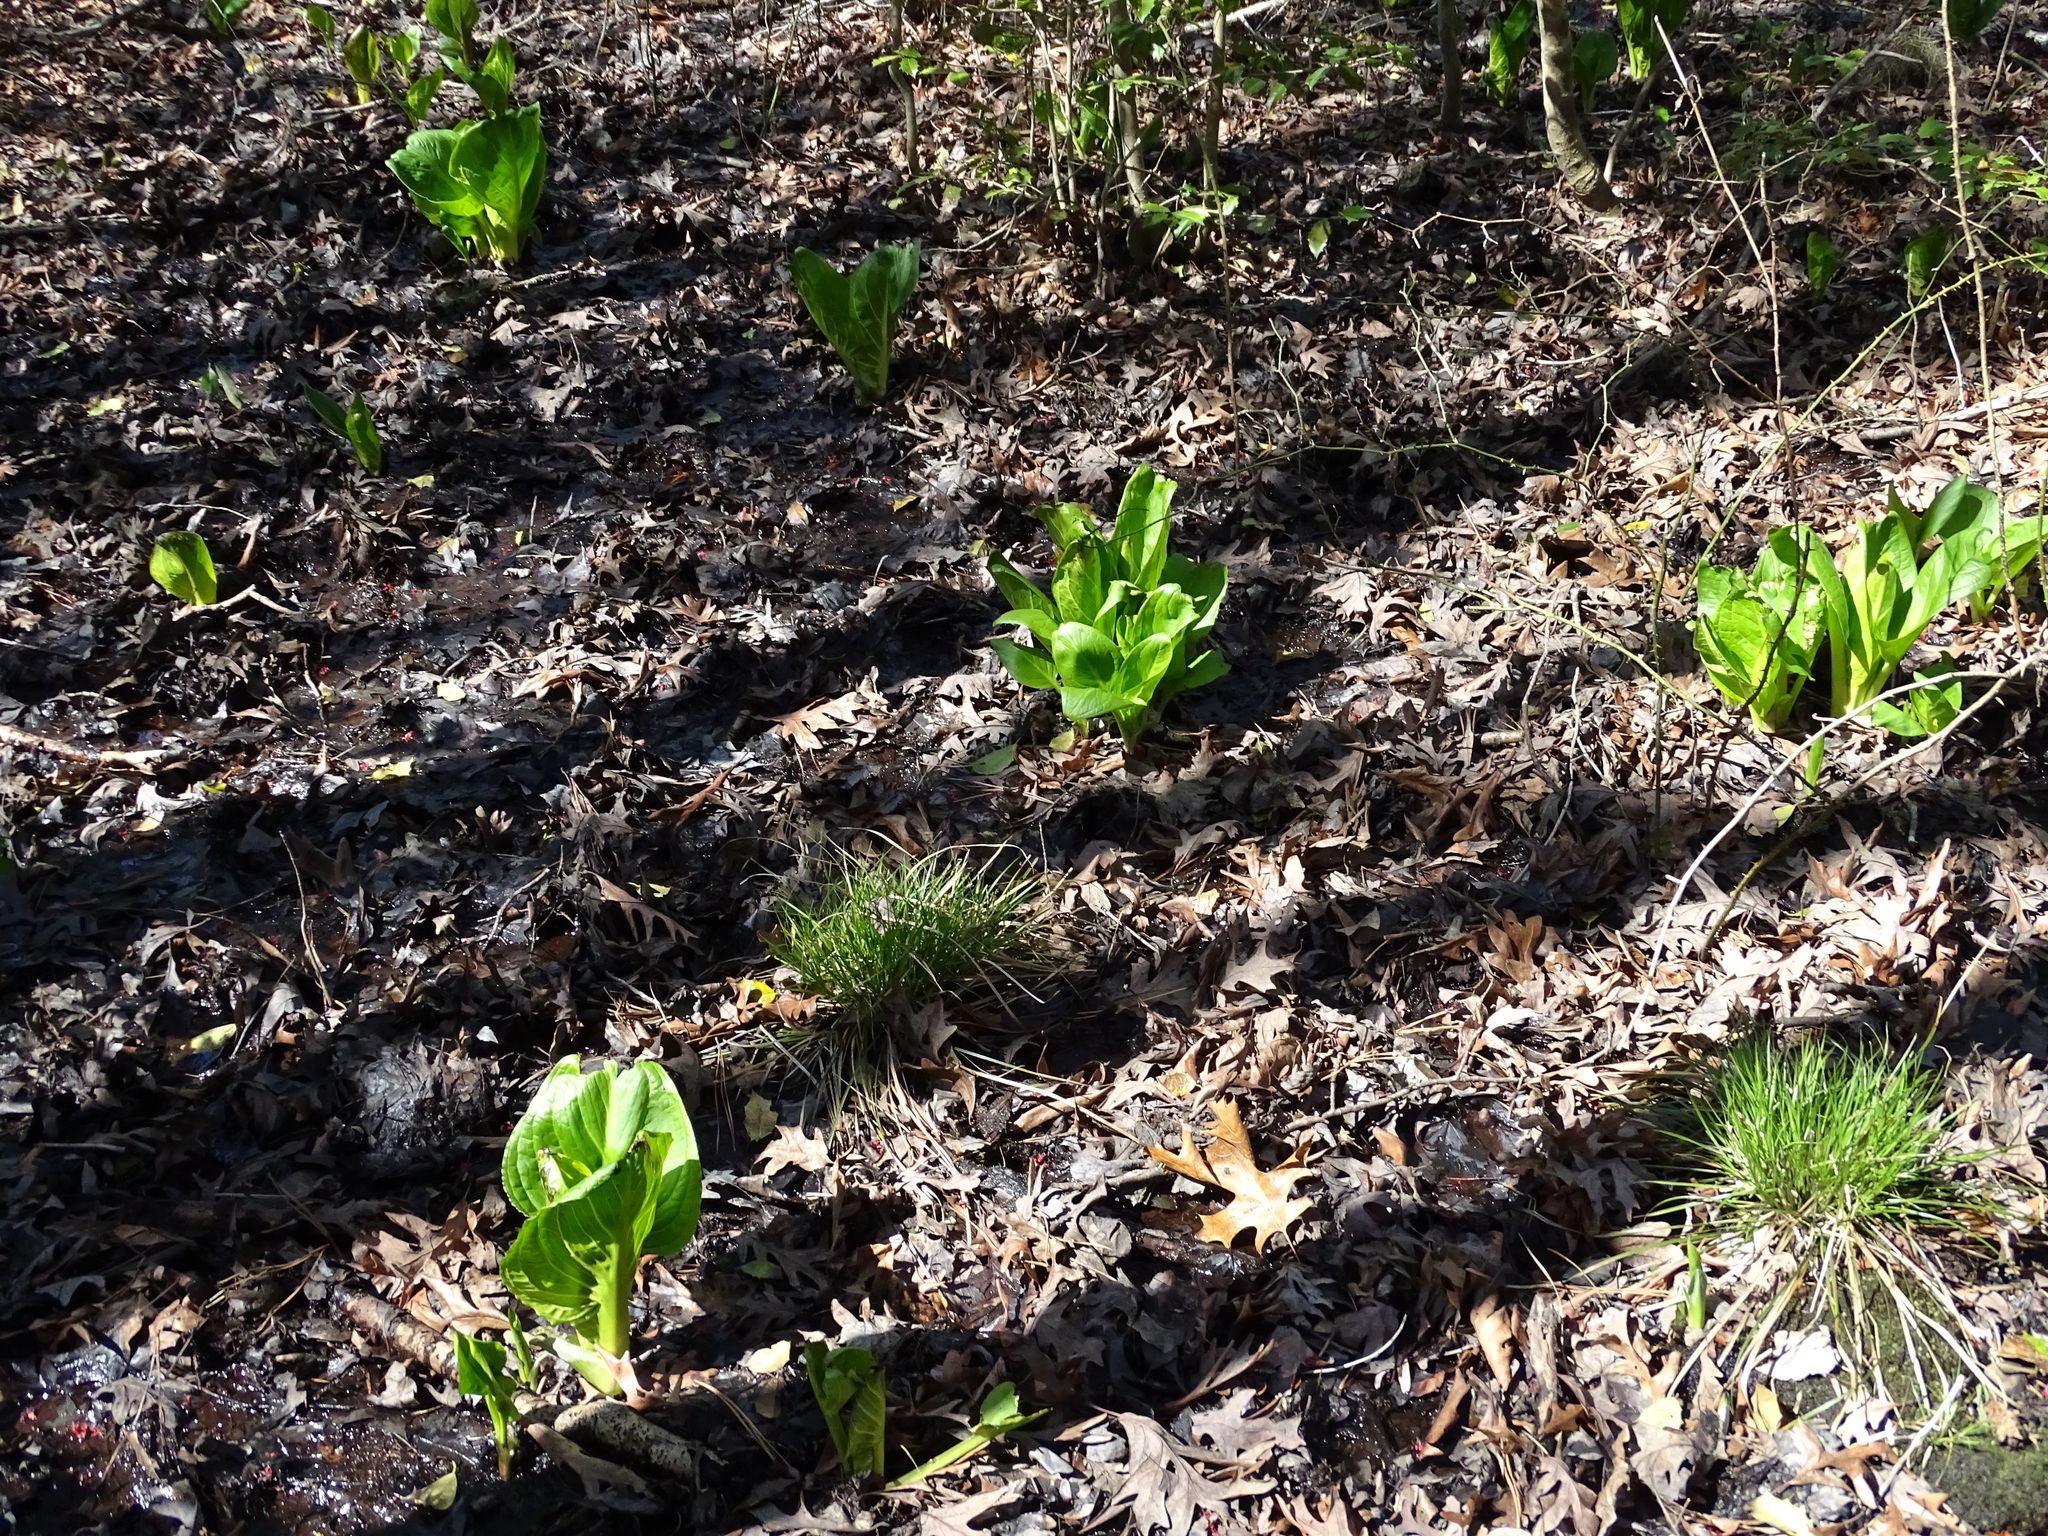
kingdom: Plantae
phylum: Tracheophyta
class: Liliopsida
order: Alismatales
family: Araceae
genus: Symplocarpus
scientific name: Symplocarpus foetidus
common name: Eastern skunk cabbage
